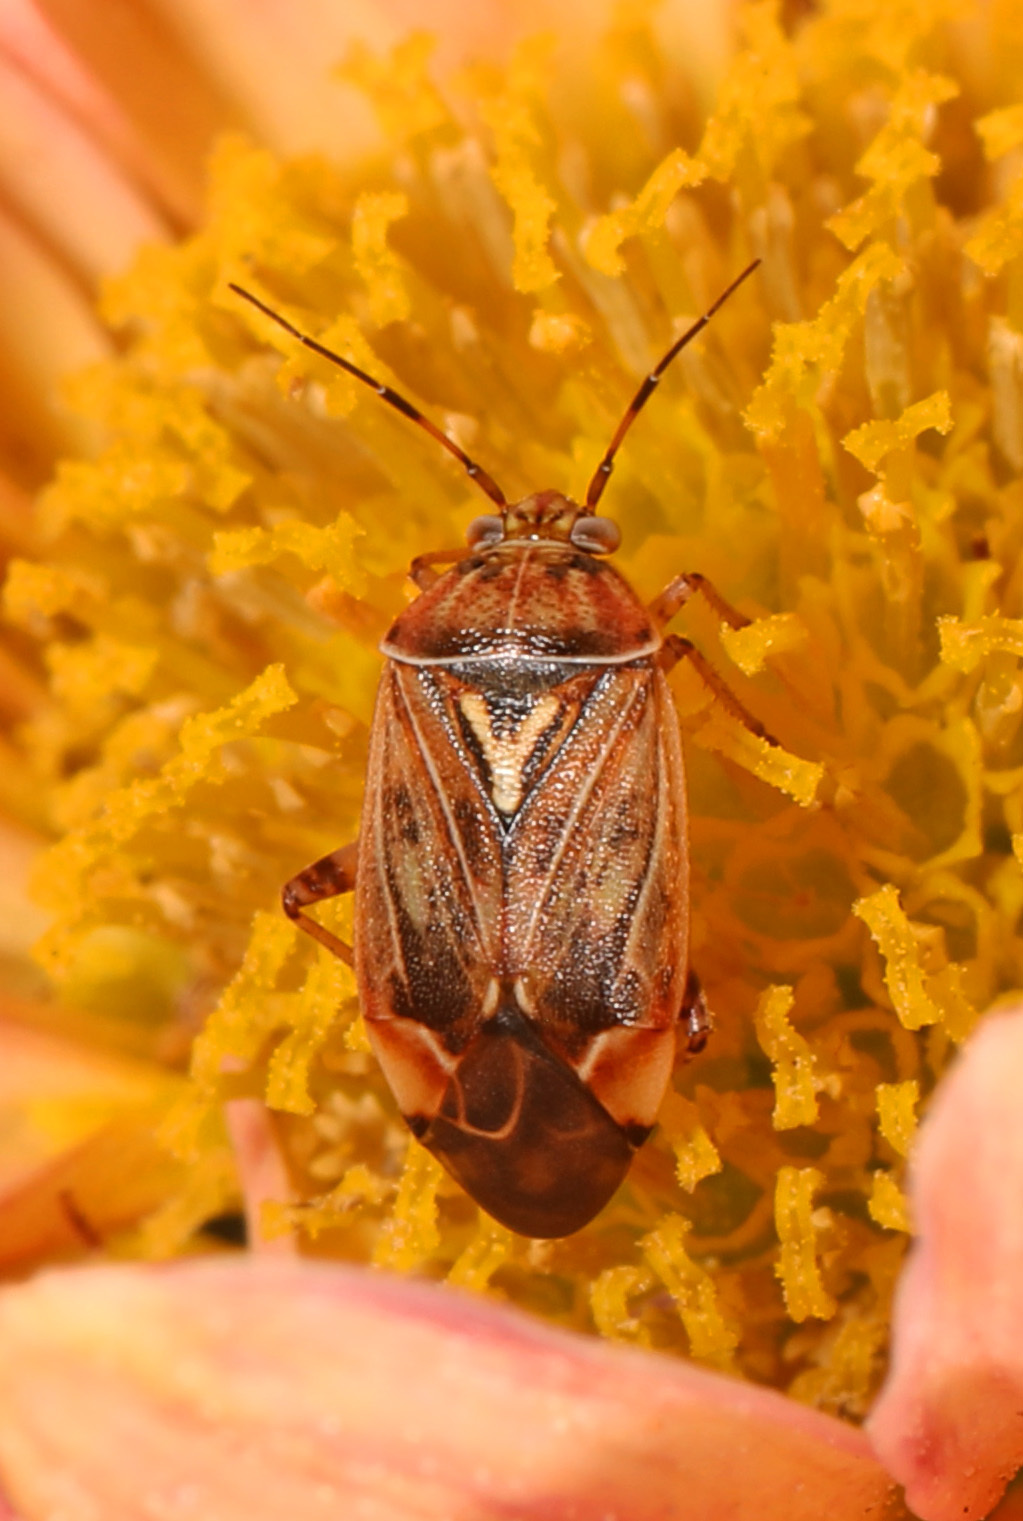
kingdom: Animalia
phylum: Arthropoda
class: Insecta
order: Hemiptera
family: Miridae
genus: Lygus
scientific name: Lygus lineolaris
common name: North american tarnished plant bug
